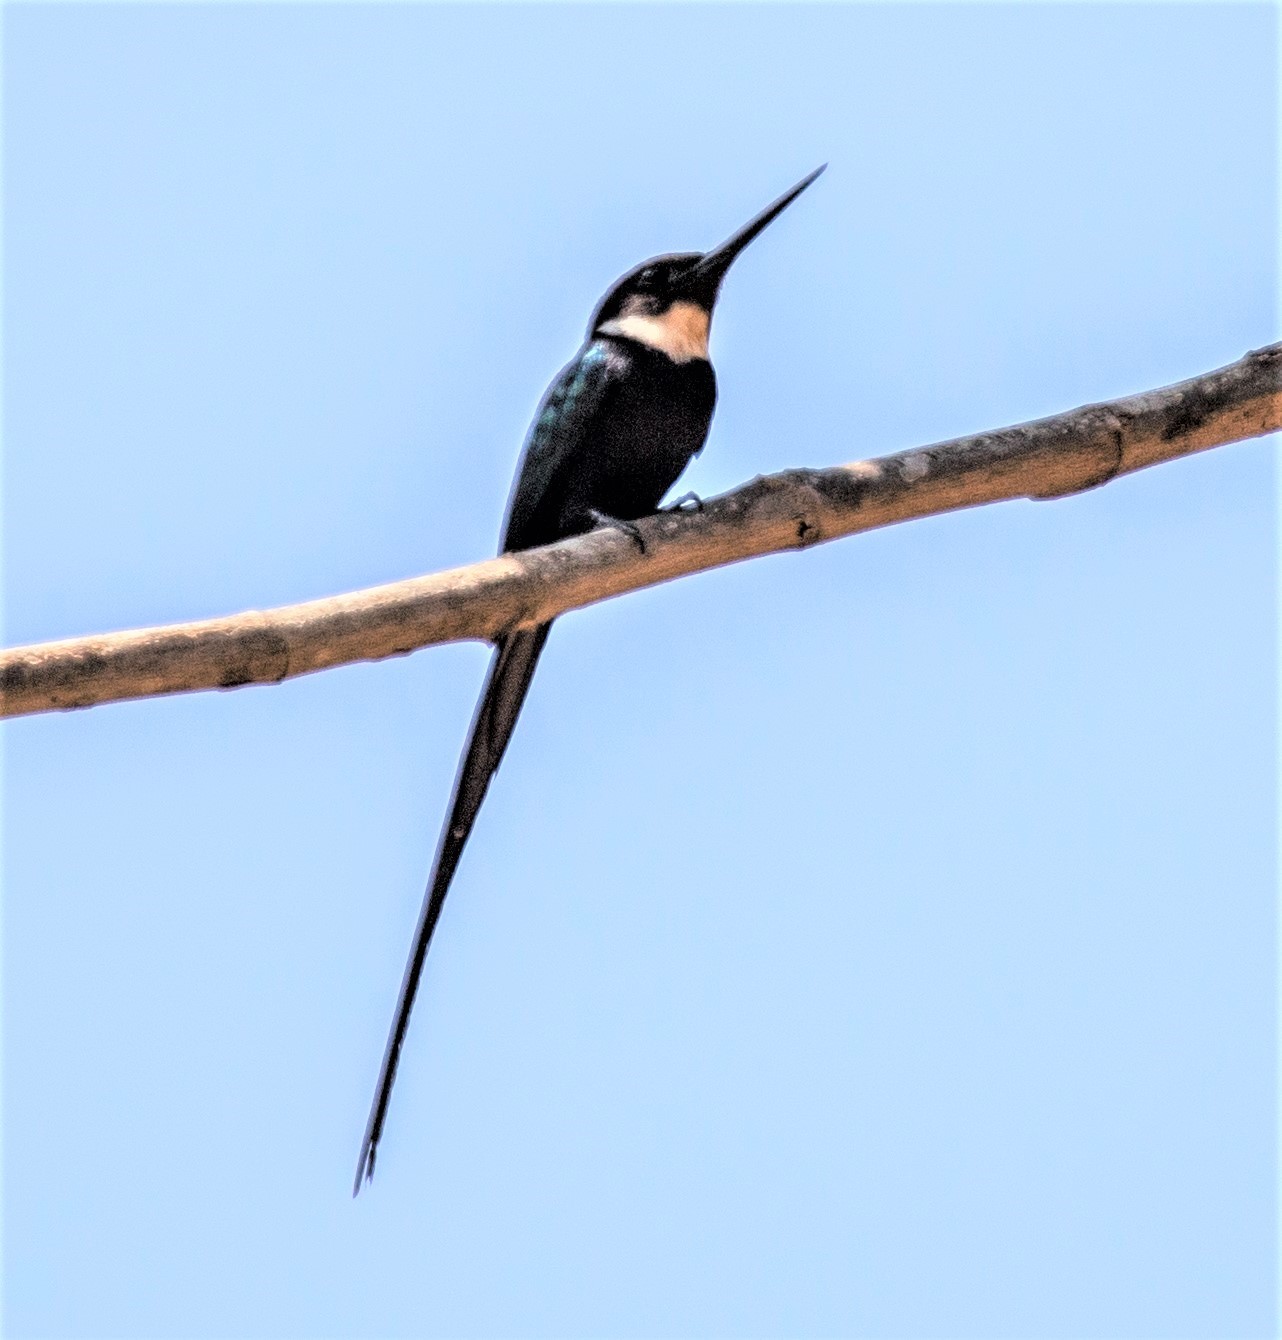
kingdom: Animalia
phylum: Chordata
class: Aves
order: Piciformes
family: Galbulidae
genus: Galbula
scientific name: Galbula dea
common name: Paradise jacamar
